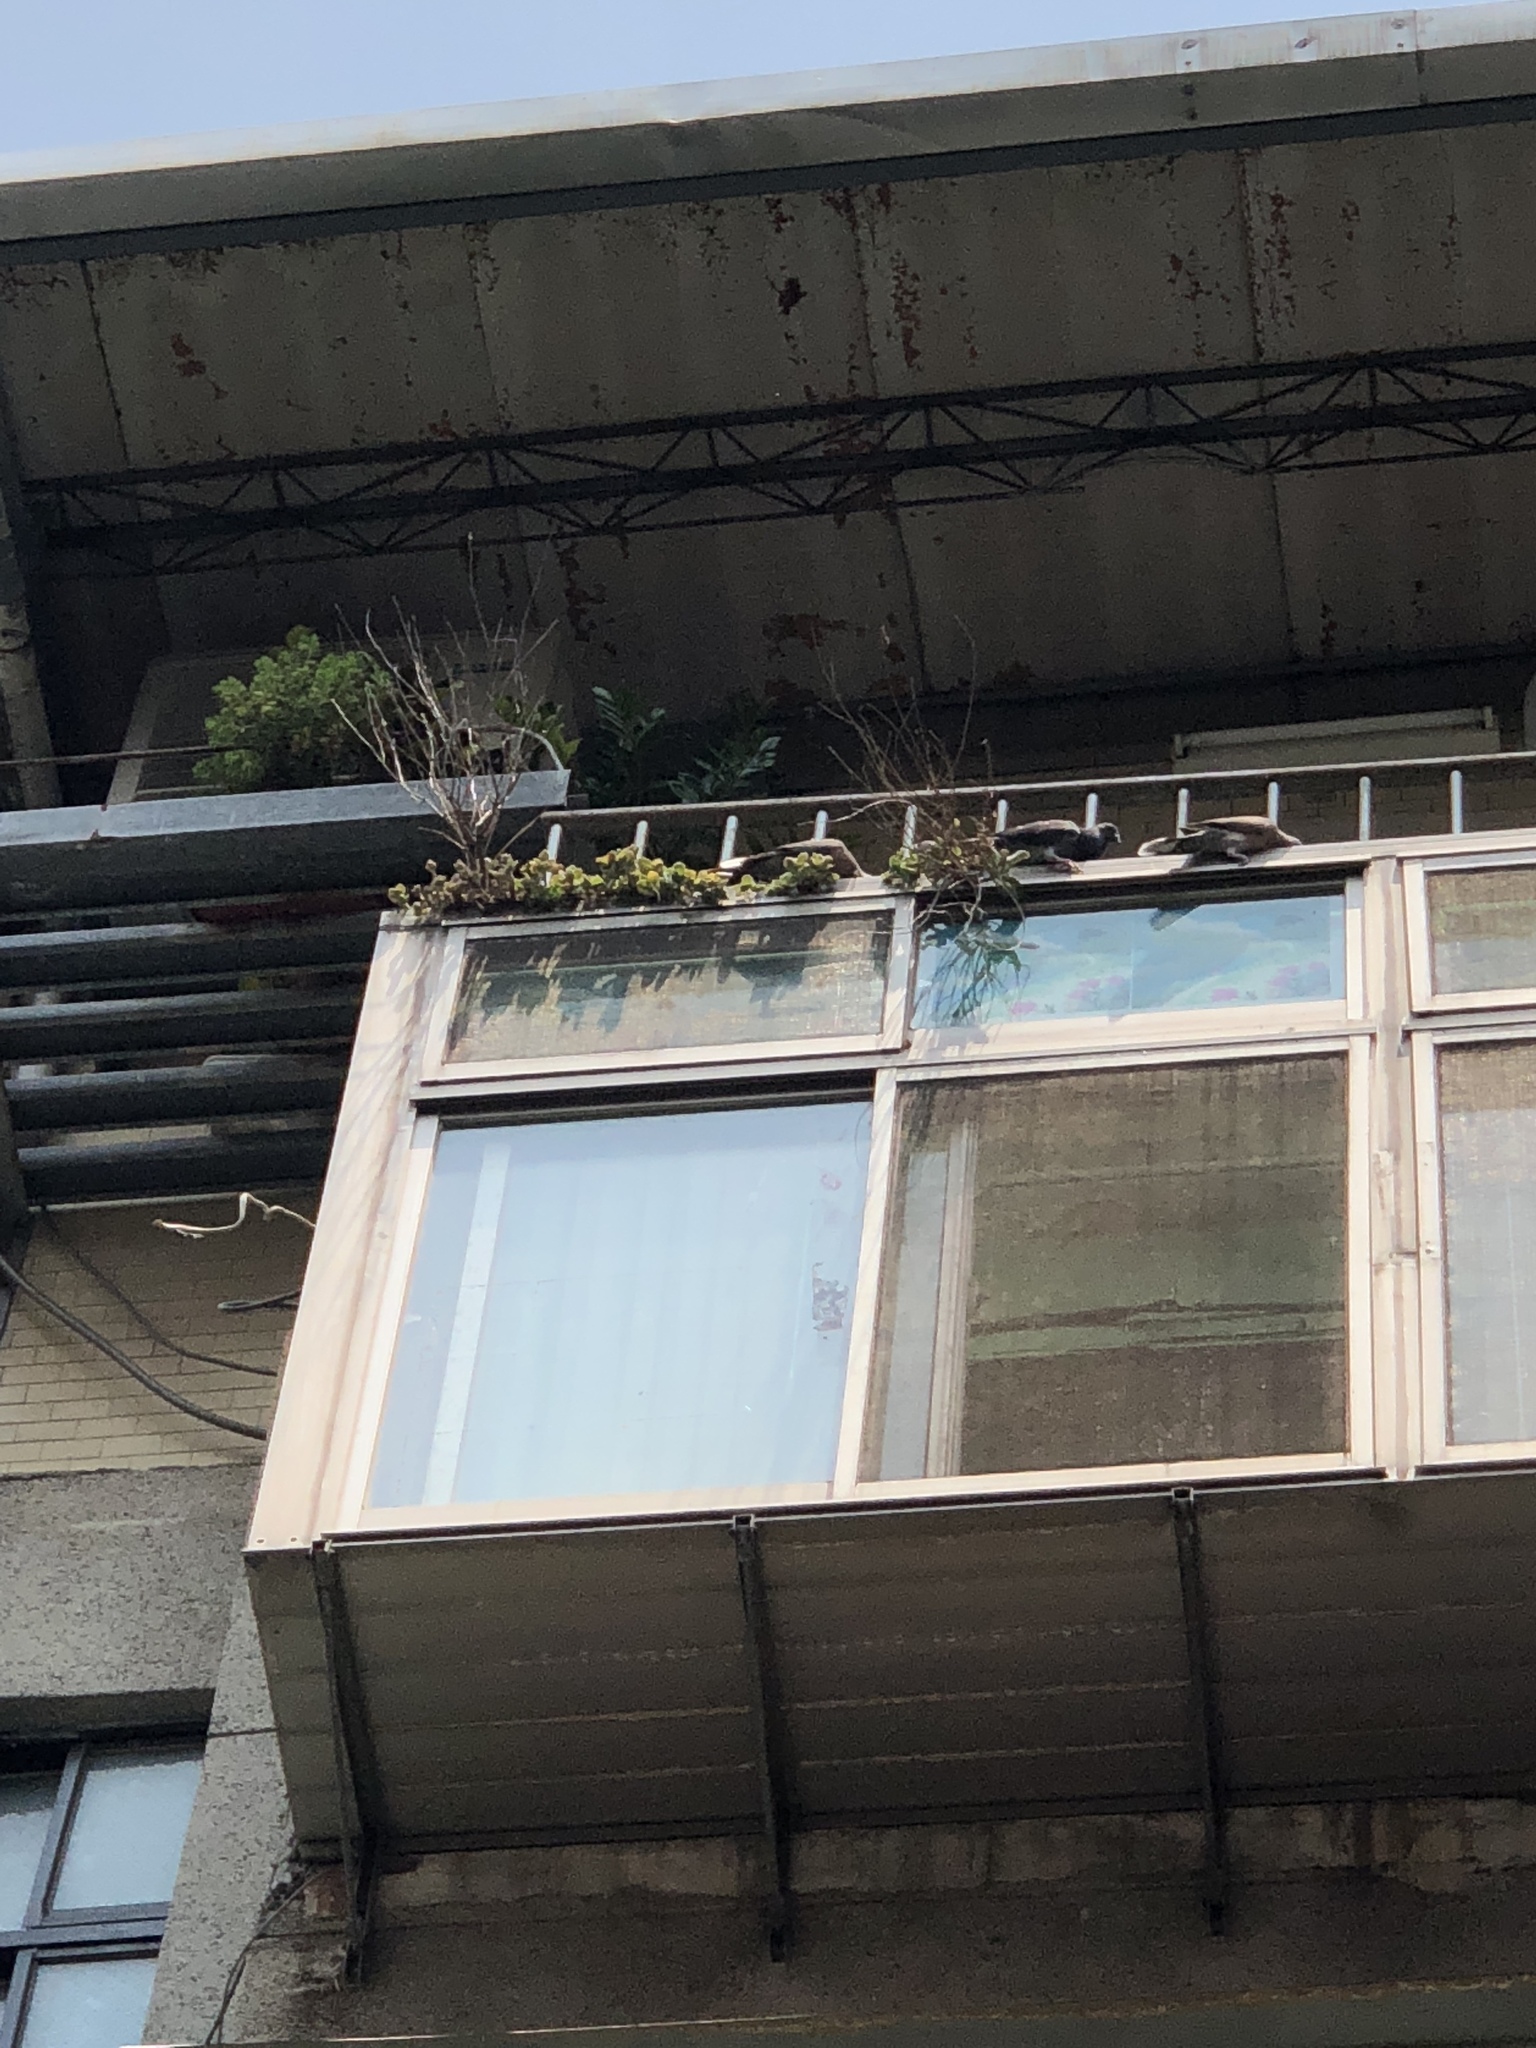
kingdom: Animalia
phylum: Chordata
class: Aves
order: Columbiformes
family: Columbidae
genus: Columba
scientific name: Columba livia
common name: Rock pigeon
